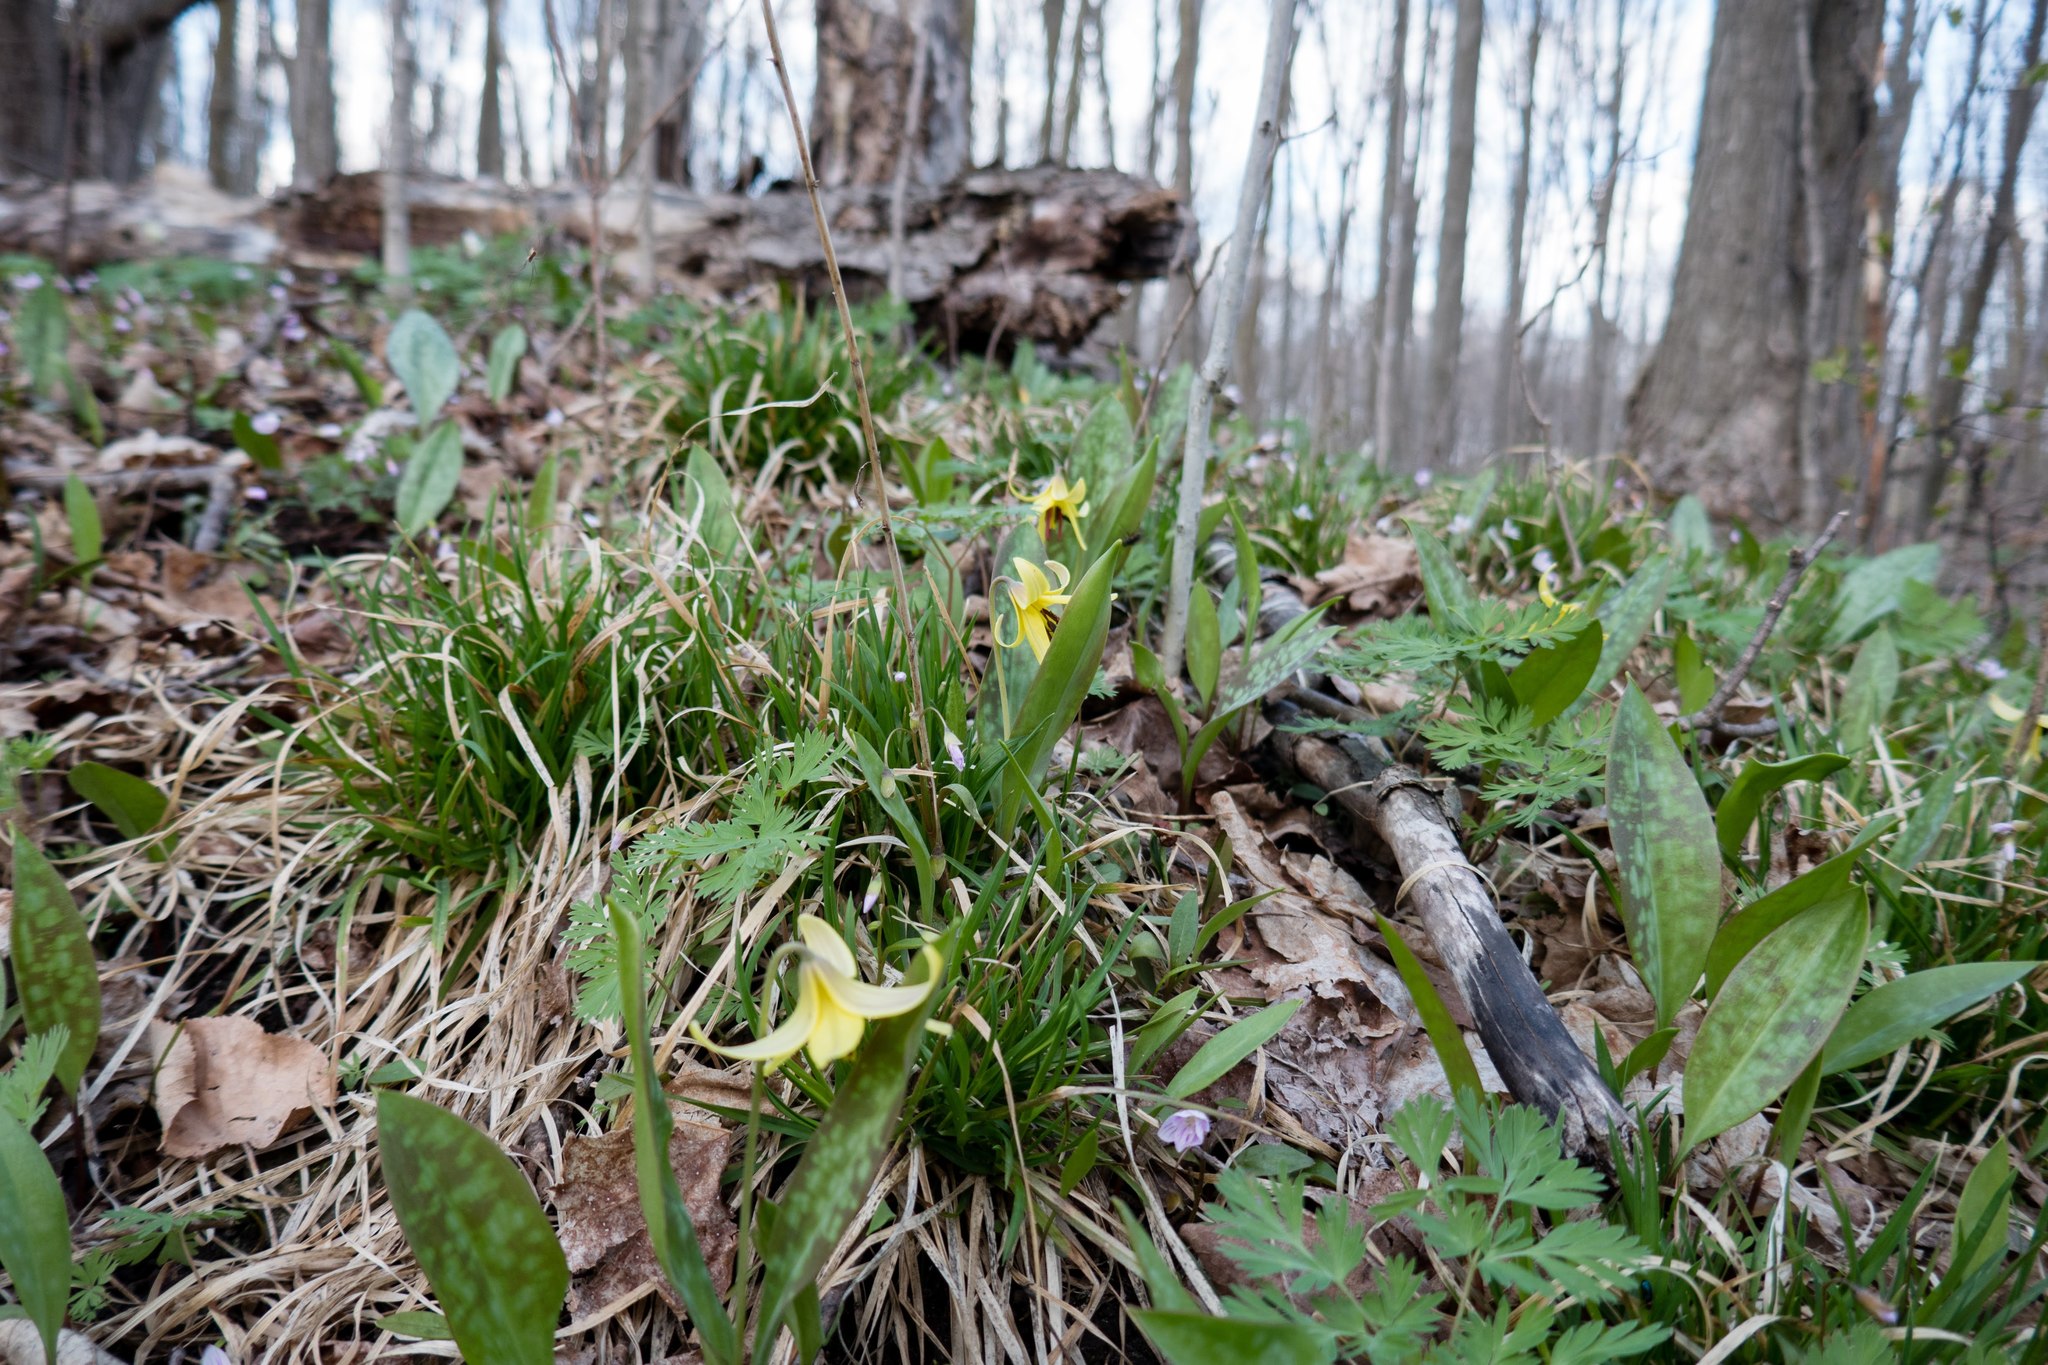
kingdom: Plantae
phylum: Tracheophyta
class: Liliopsida
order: Liliales
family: Liliaceae
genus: Erythronium
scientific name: Erythronium americanum
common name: Yellow adder's-tongue
